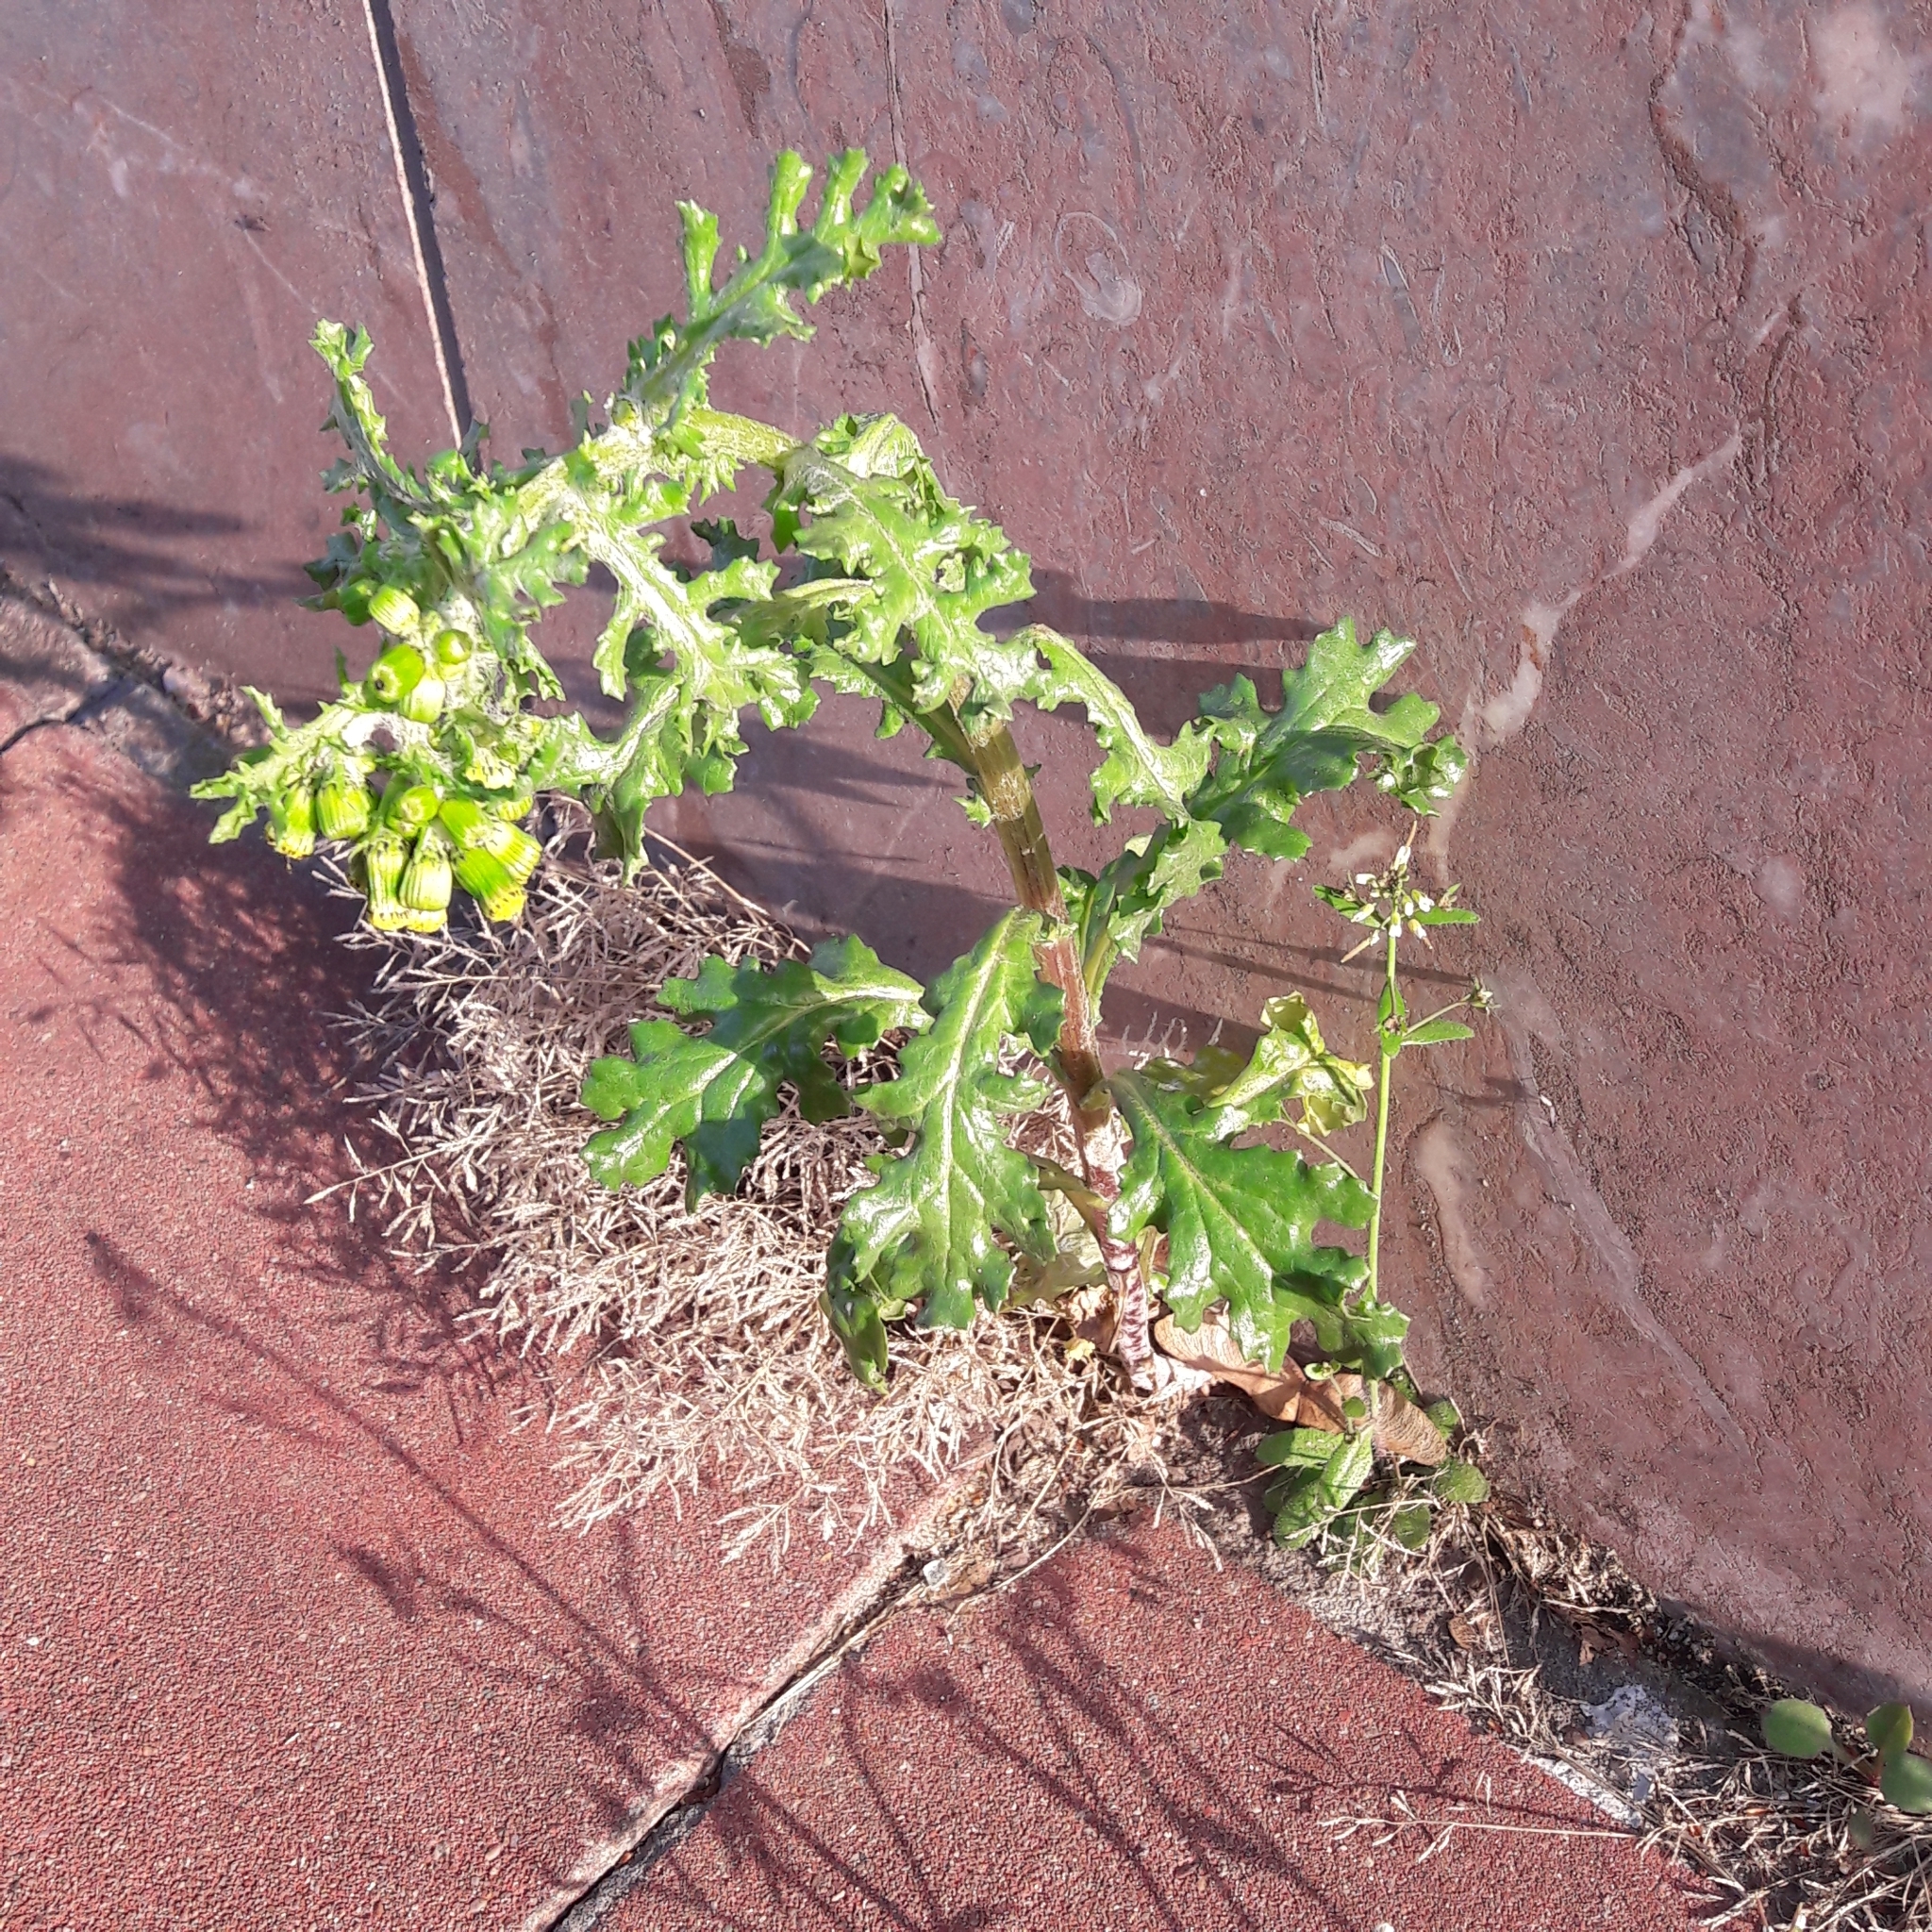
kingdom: Plantae
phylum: Tracheophyta
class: Magnoliopsida
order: Asterales
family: Asteraceae
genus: Senecio
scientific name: Senecio vulgaris
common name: Old-man-in-the-spring
